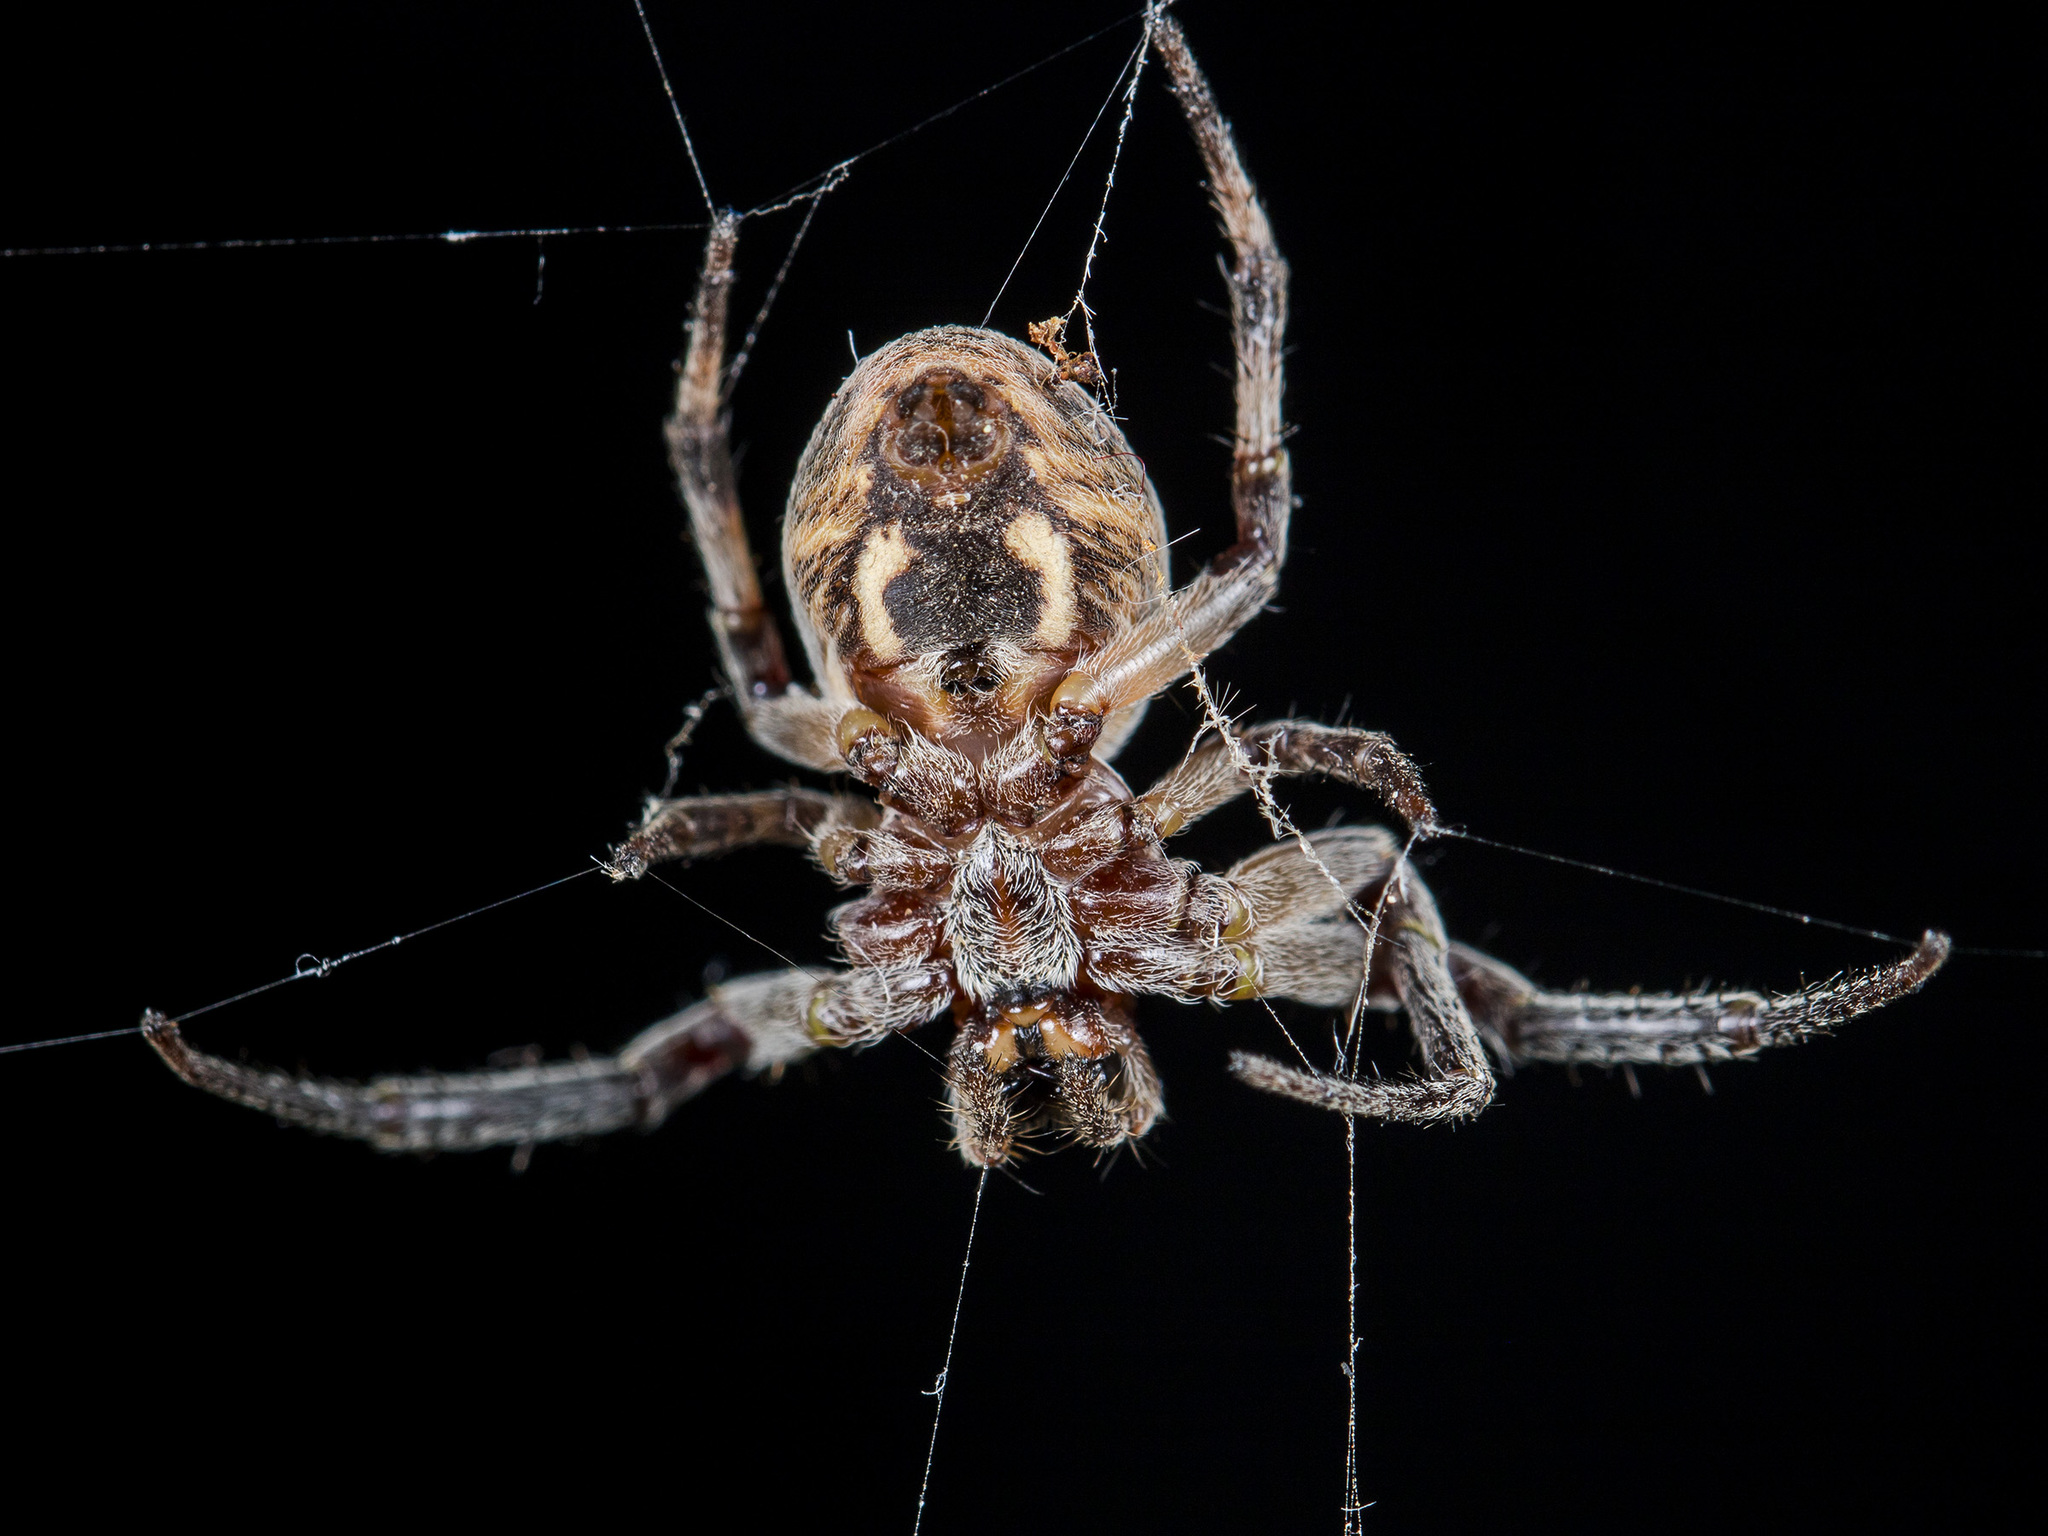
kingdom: Animalia
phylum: Arthropoda
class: Arachnida
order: Araneae
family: Araneidae
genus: Larinioides
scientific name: Larinioides suspicax
